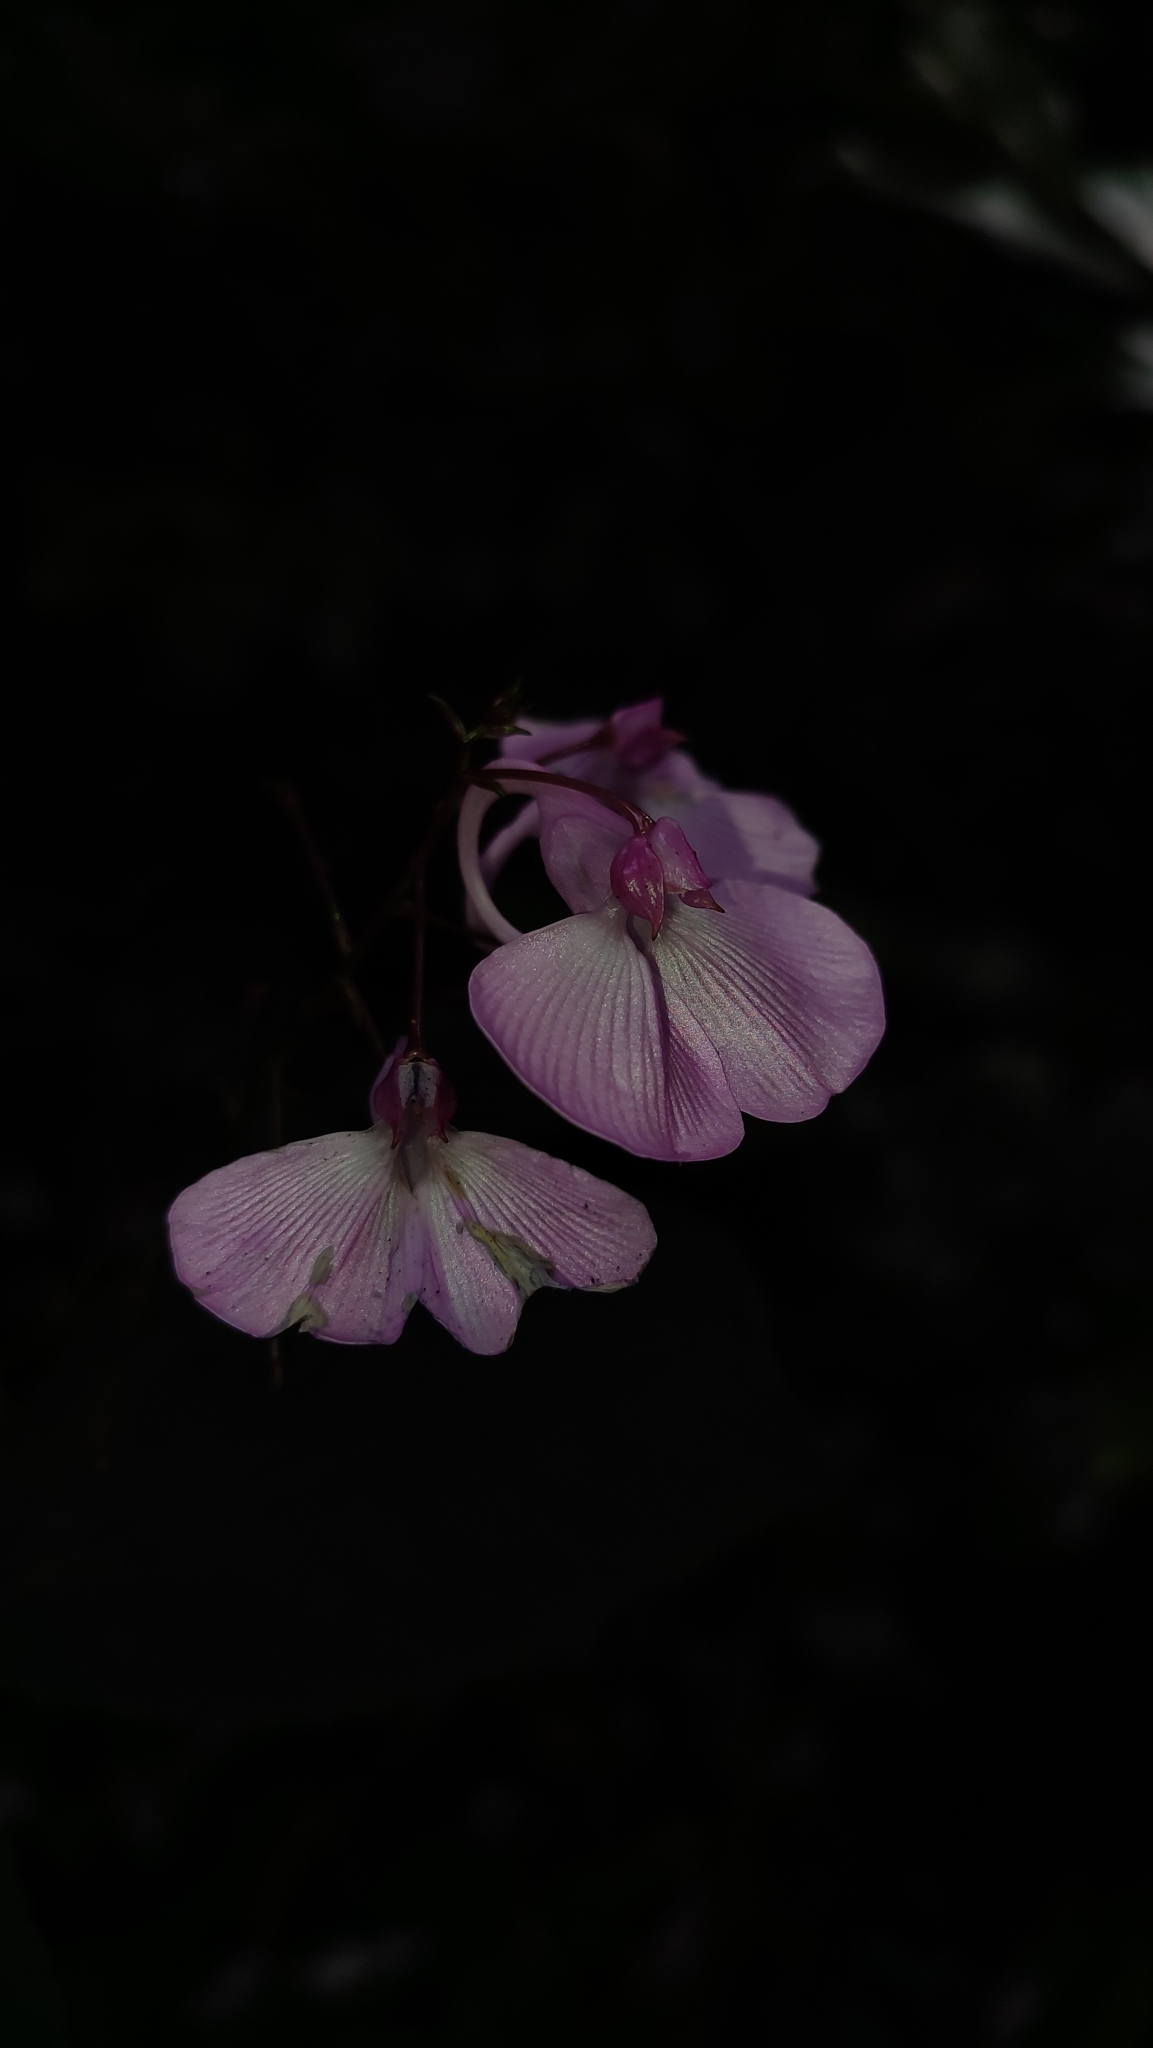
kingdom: Plantae
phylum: Tracheophyta
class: Magnoliopsida
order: Ericales
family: Balsaminaceae
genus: Impatiens
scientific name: Impatiens maculata
